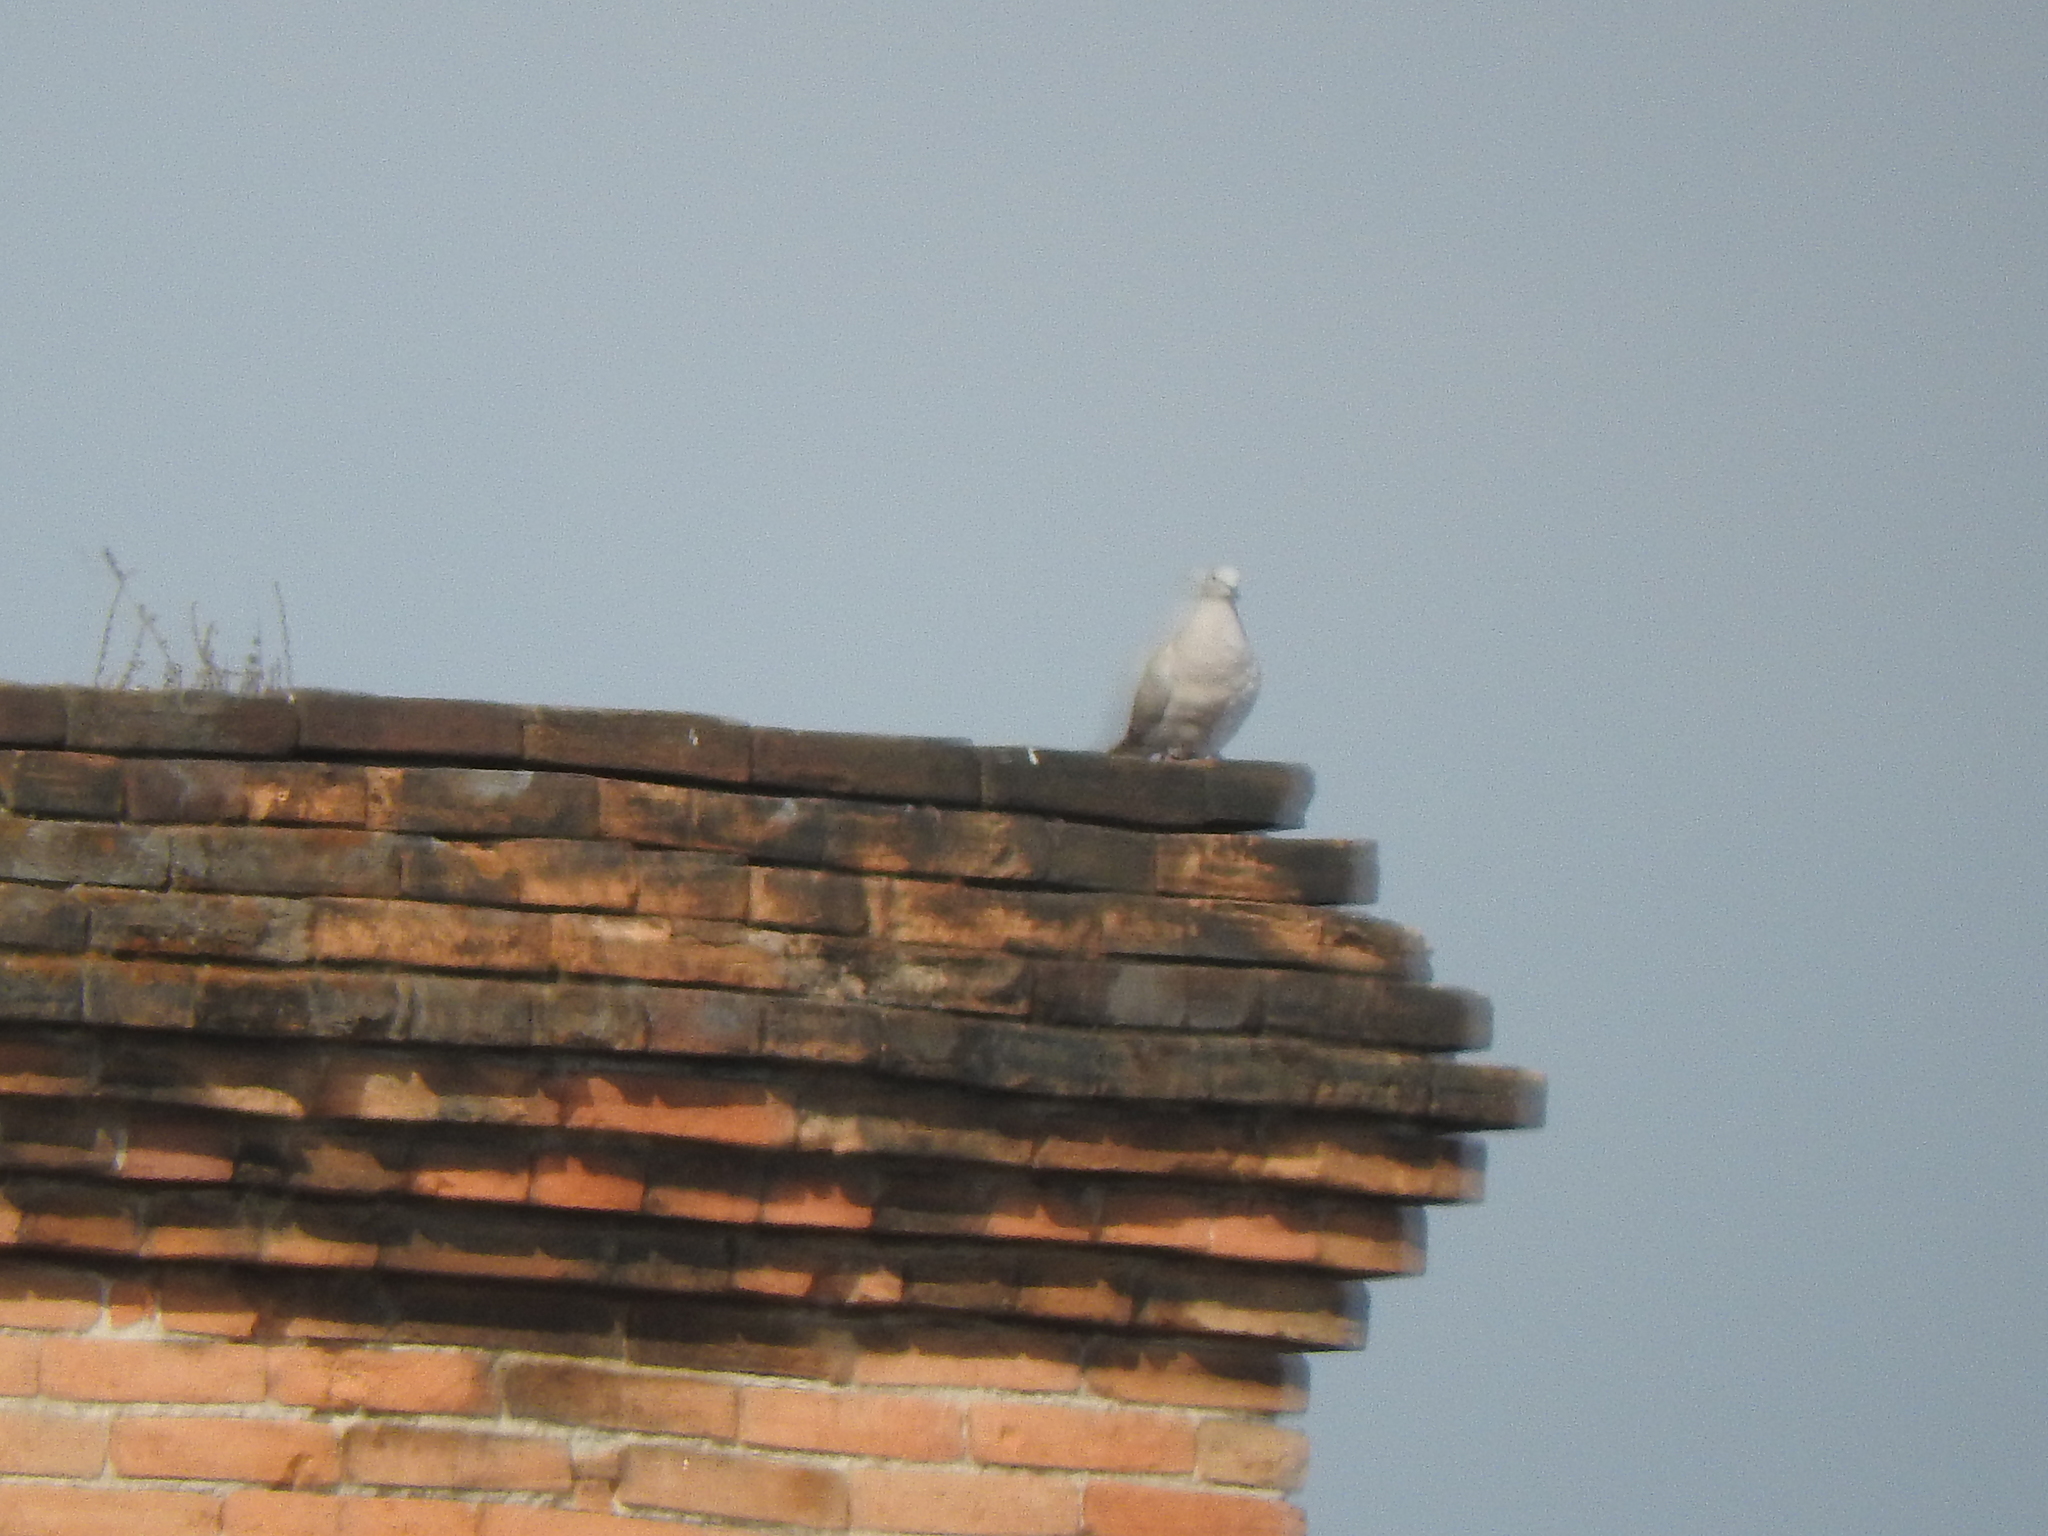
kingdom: Animalia
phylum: Chordata
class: Aves
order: Columbiformes
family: Columbidae
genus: Streptopelia
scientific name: Streptopelia decaocto
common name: Eurasian collared dove
